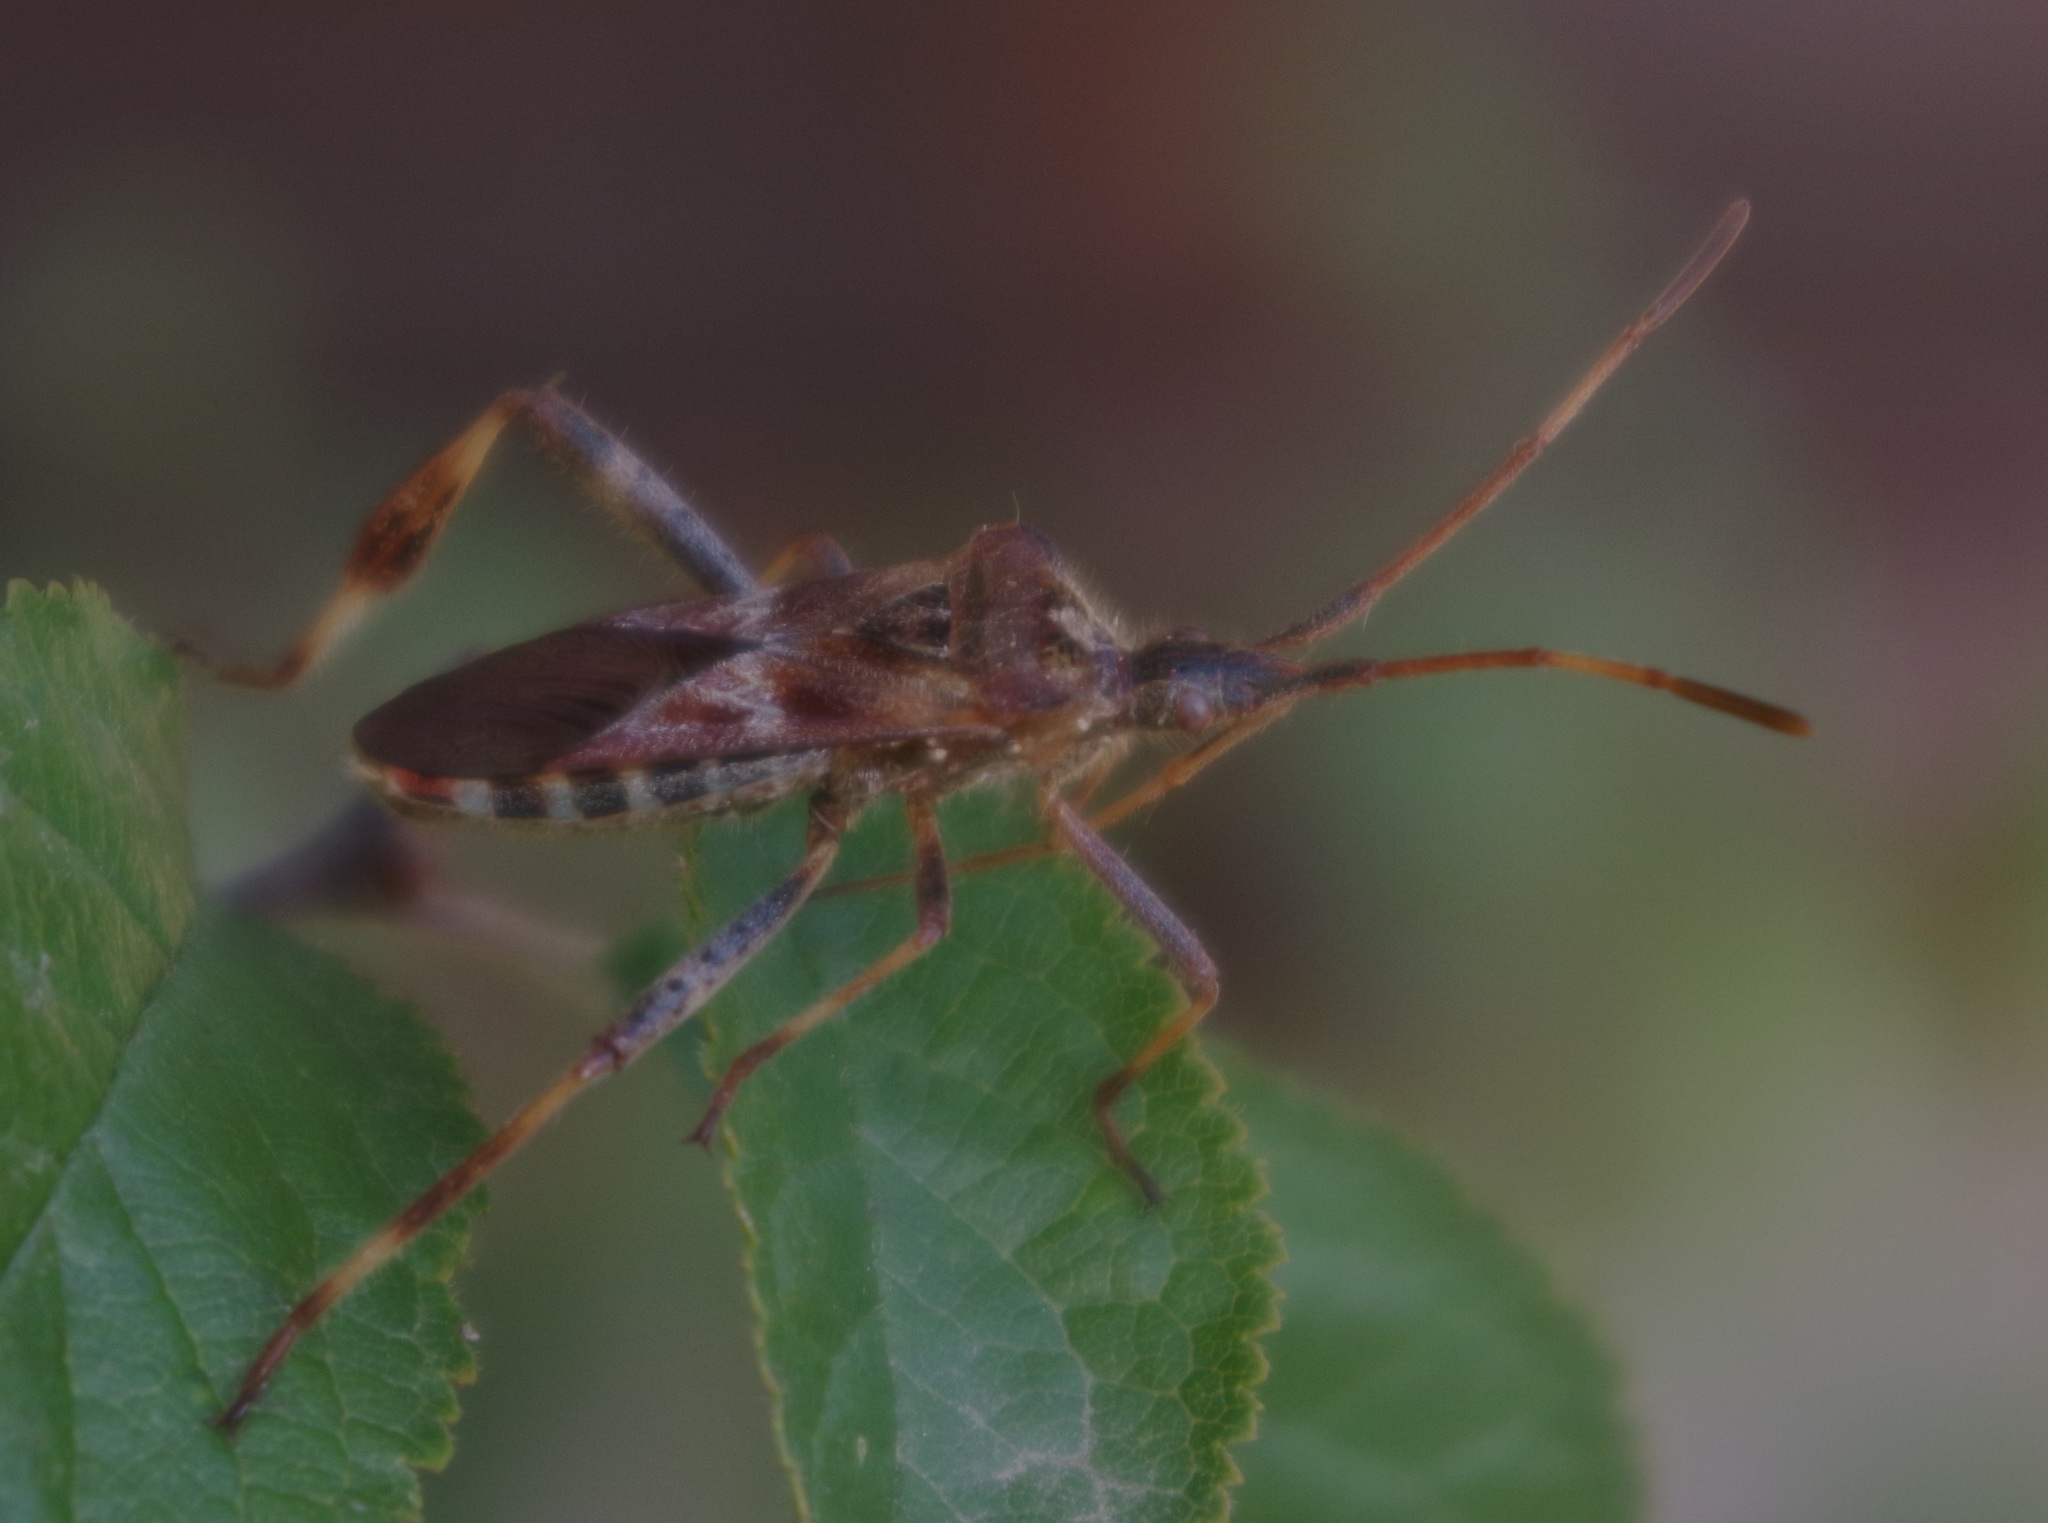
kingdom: Animalia
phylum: Arthropoda
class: Insecta
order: Hemiptera
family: Coreidae
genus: Leptoglossus
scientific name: Leptoglossus occidentalis
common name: Western conifer-seed bug
